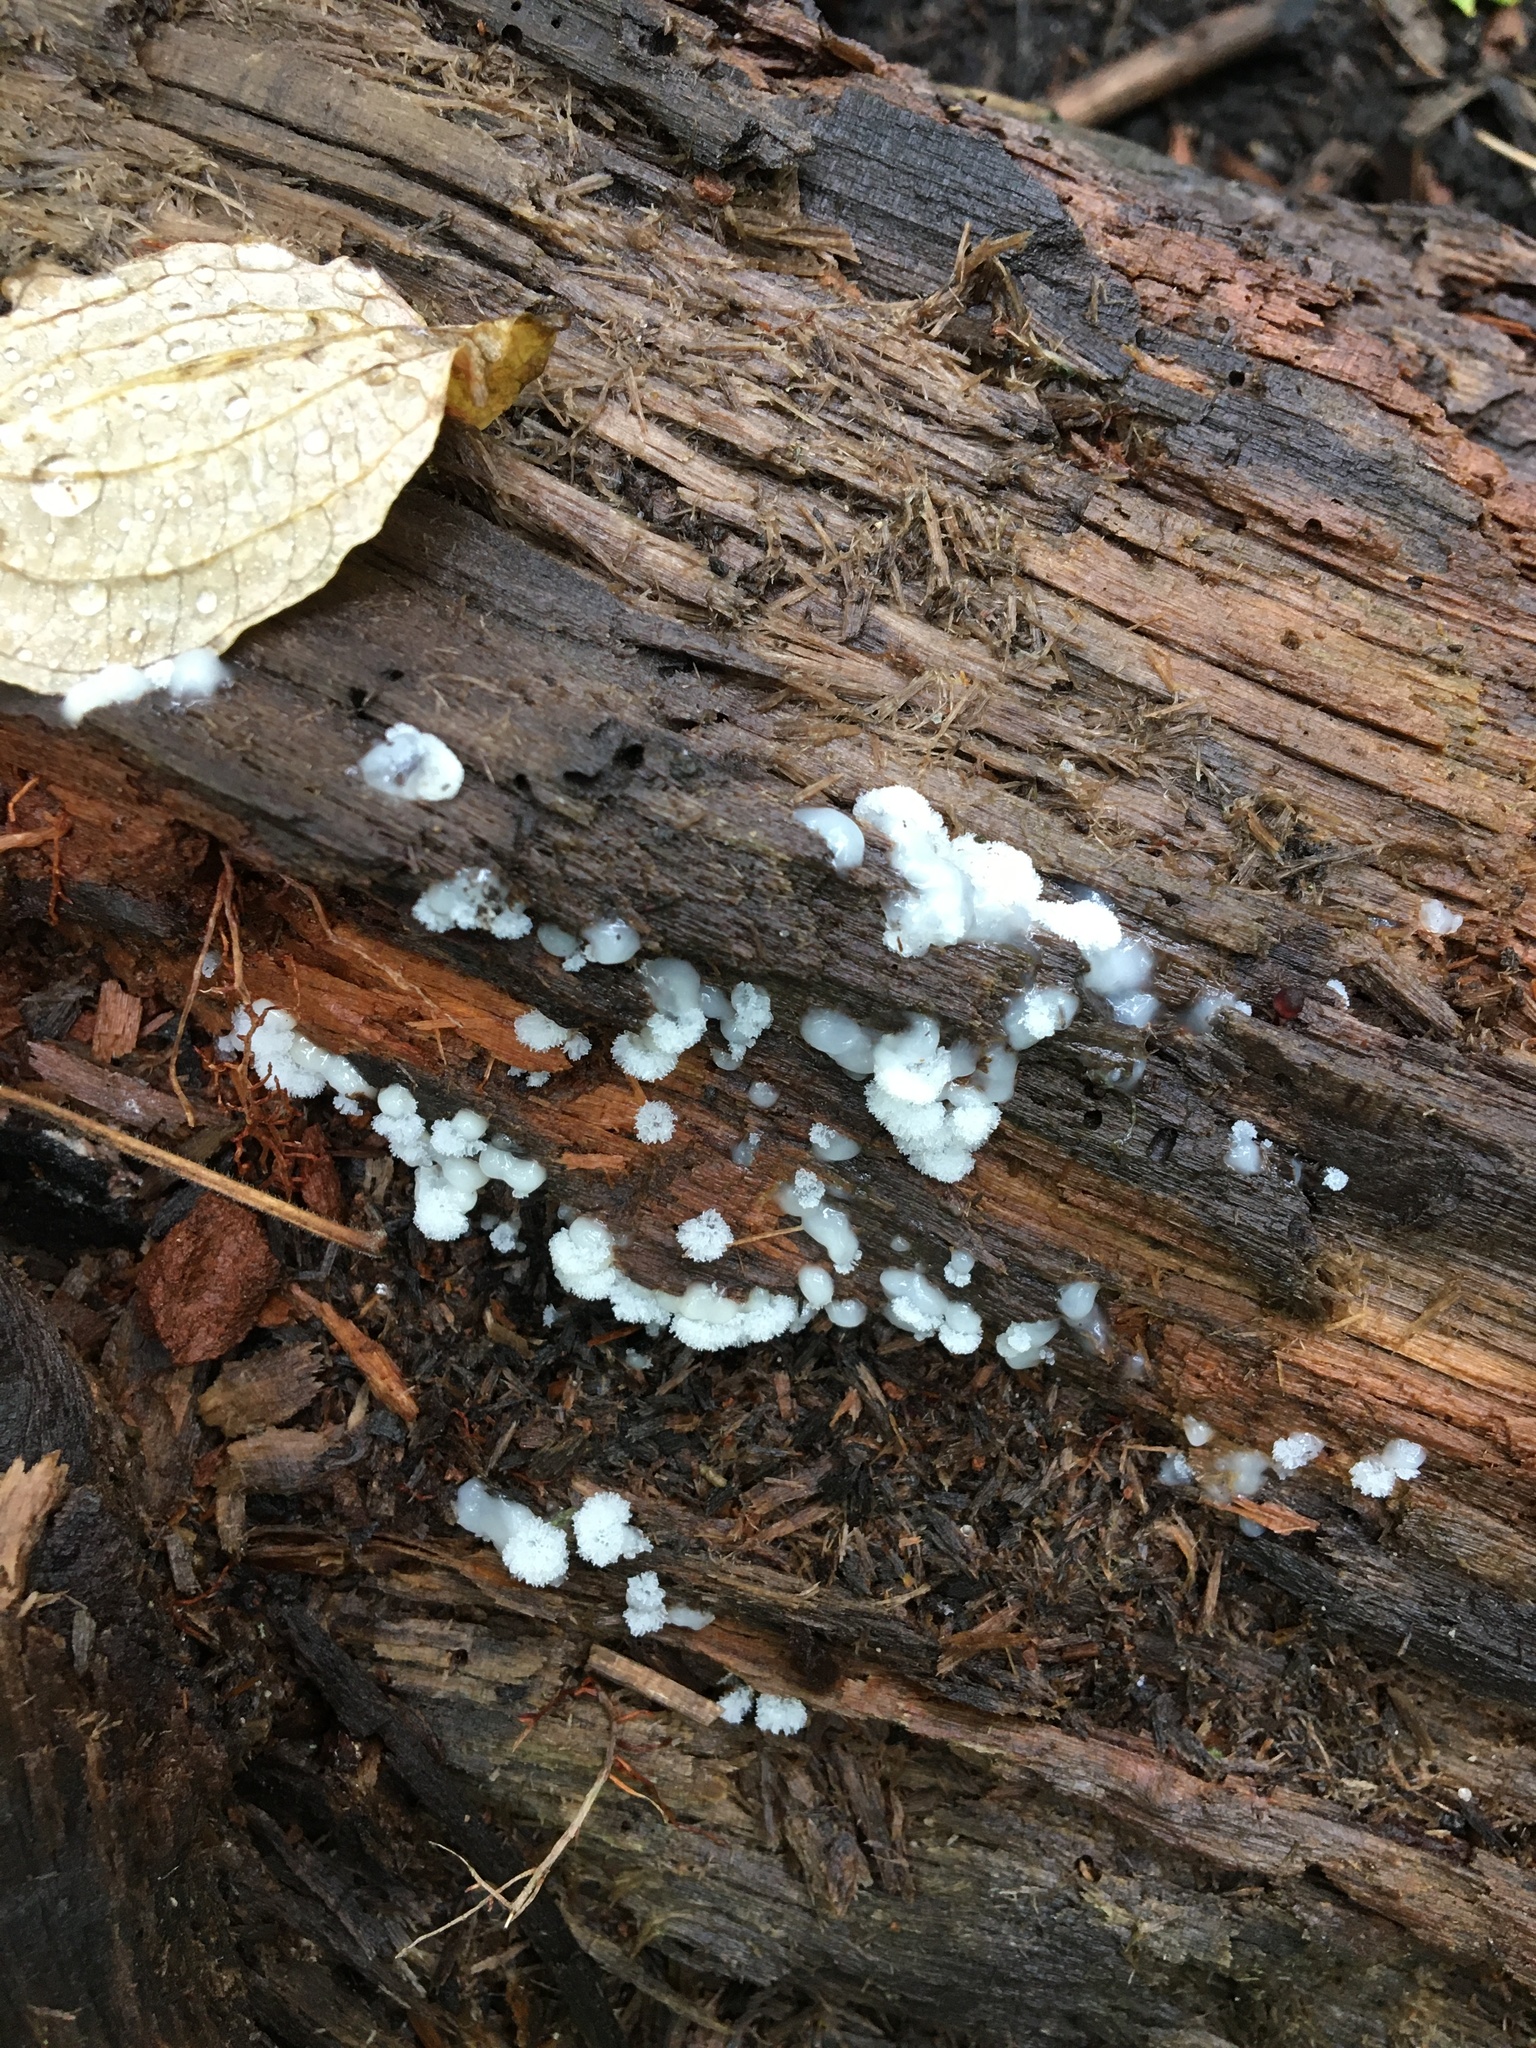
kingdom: Protozoa
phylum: Mycetozoa
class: Protosteliomycetes
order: Ceratiomyxales
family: Ceratiomyxaceae
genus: Ceratiomyxa
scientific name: Ceratiomyxa fruticulosa
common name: Honeycomb coral slime mold
